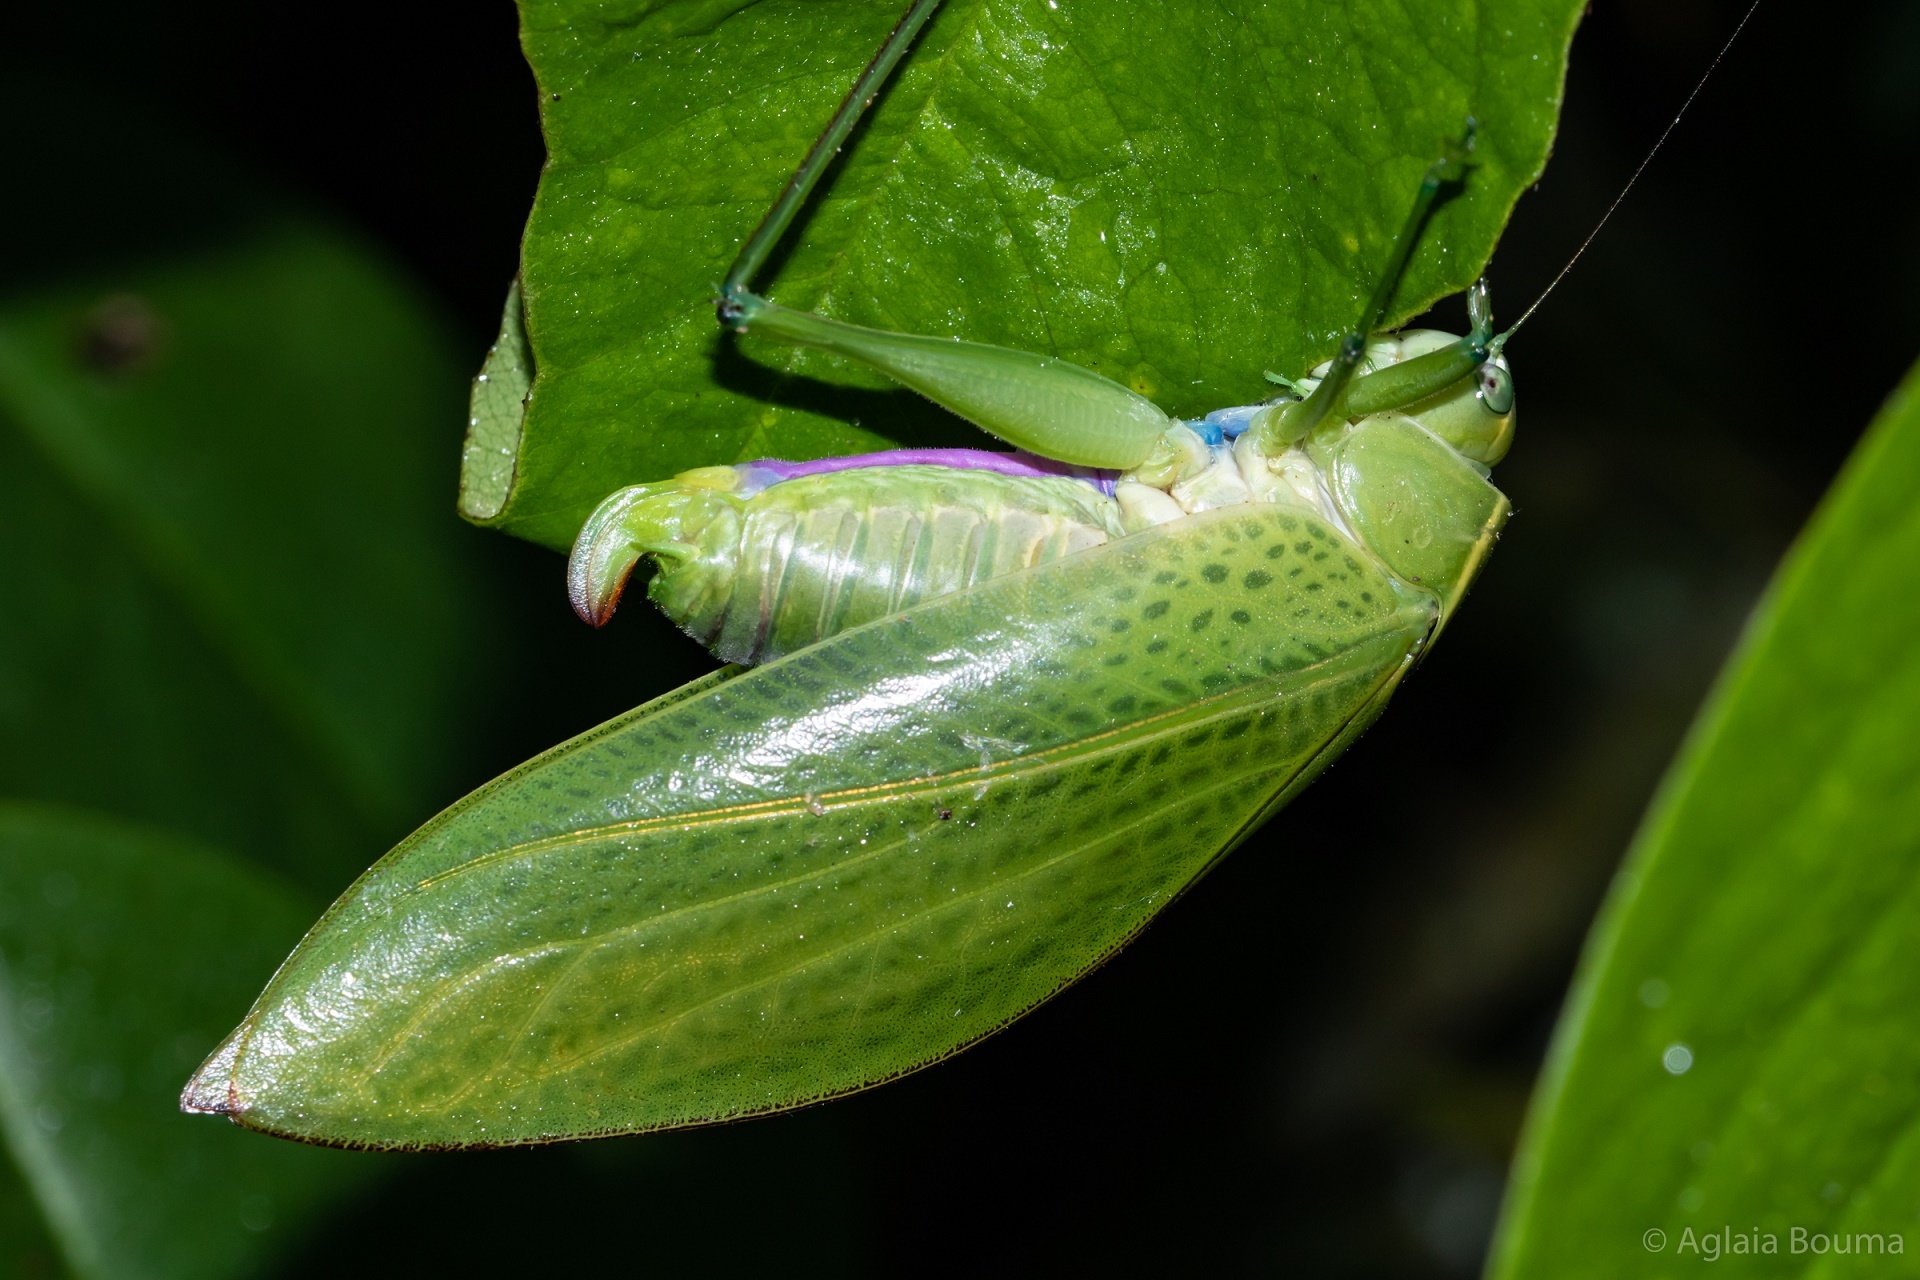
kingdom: Animalia
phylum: Arthropoda
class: Insecta
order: Orthoptera
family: Tettigoniidae
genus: Sympaestria
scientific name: Sympaestria lampra
